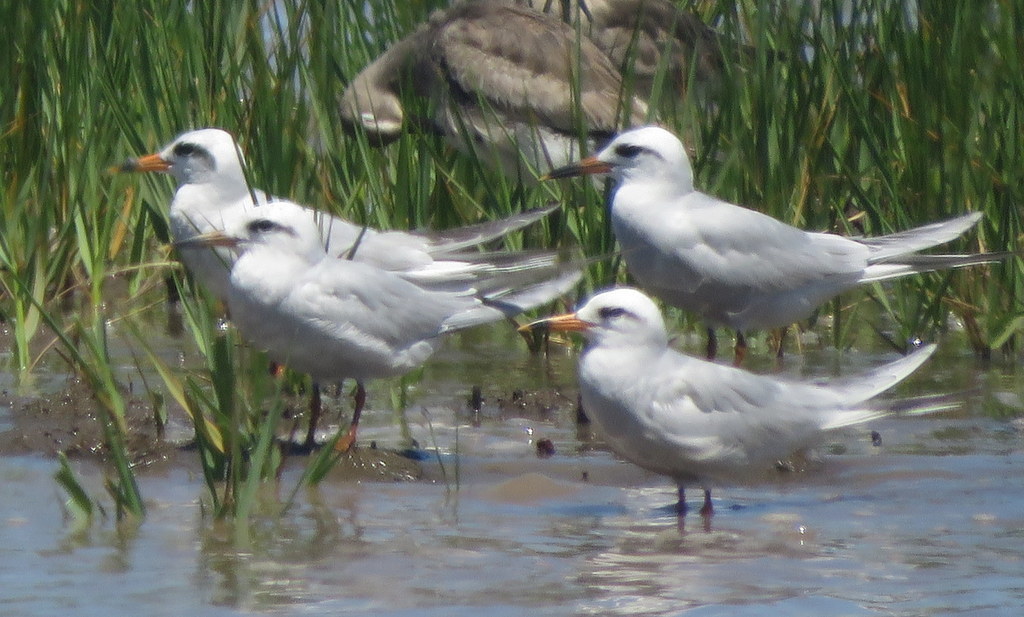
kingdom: Animalia
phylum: Chordata
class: Aves
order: Charadriiformes
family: Laridae
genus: Sterna
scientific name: Sterna trudeaui
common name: Snowy-crowned tern
